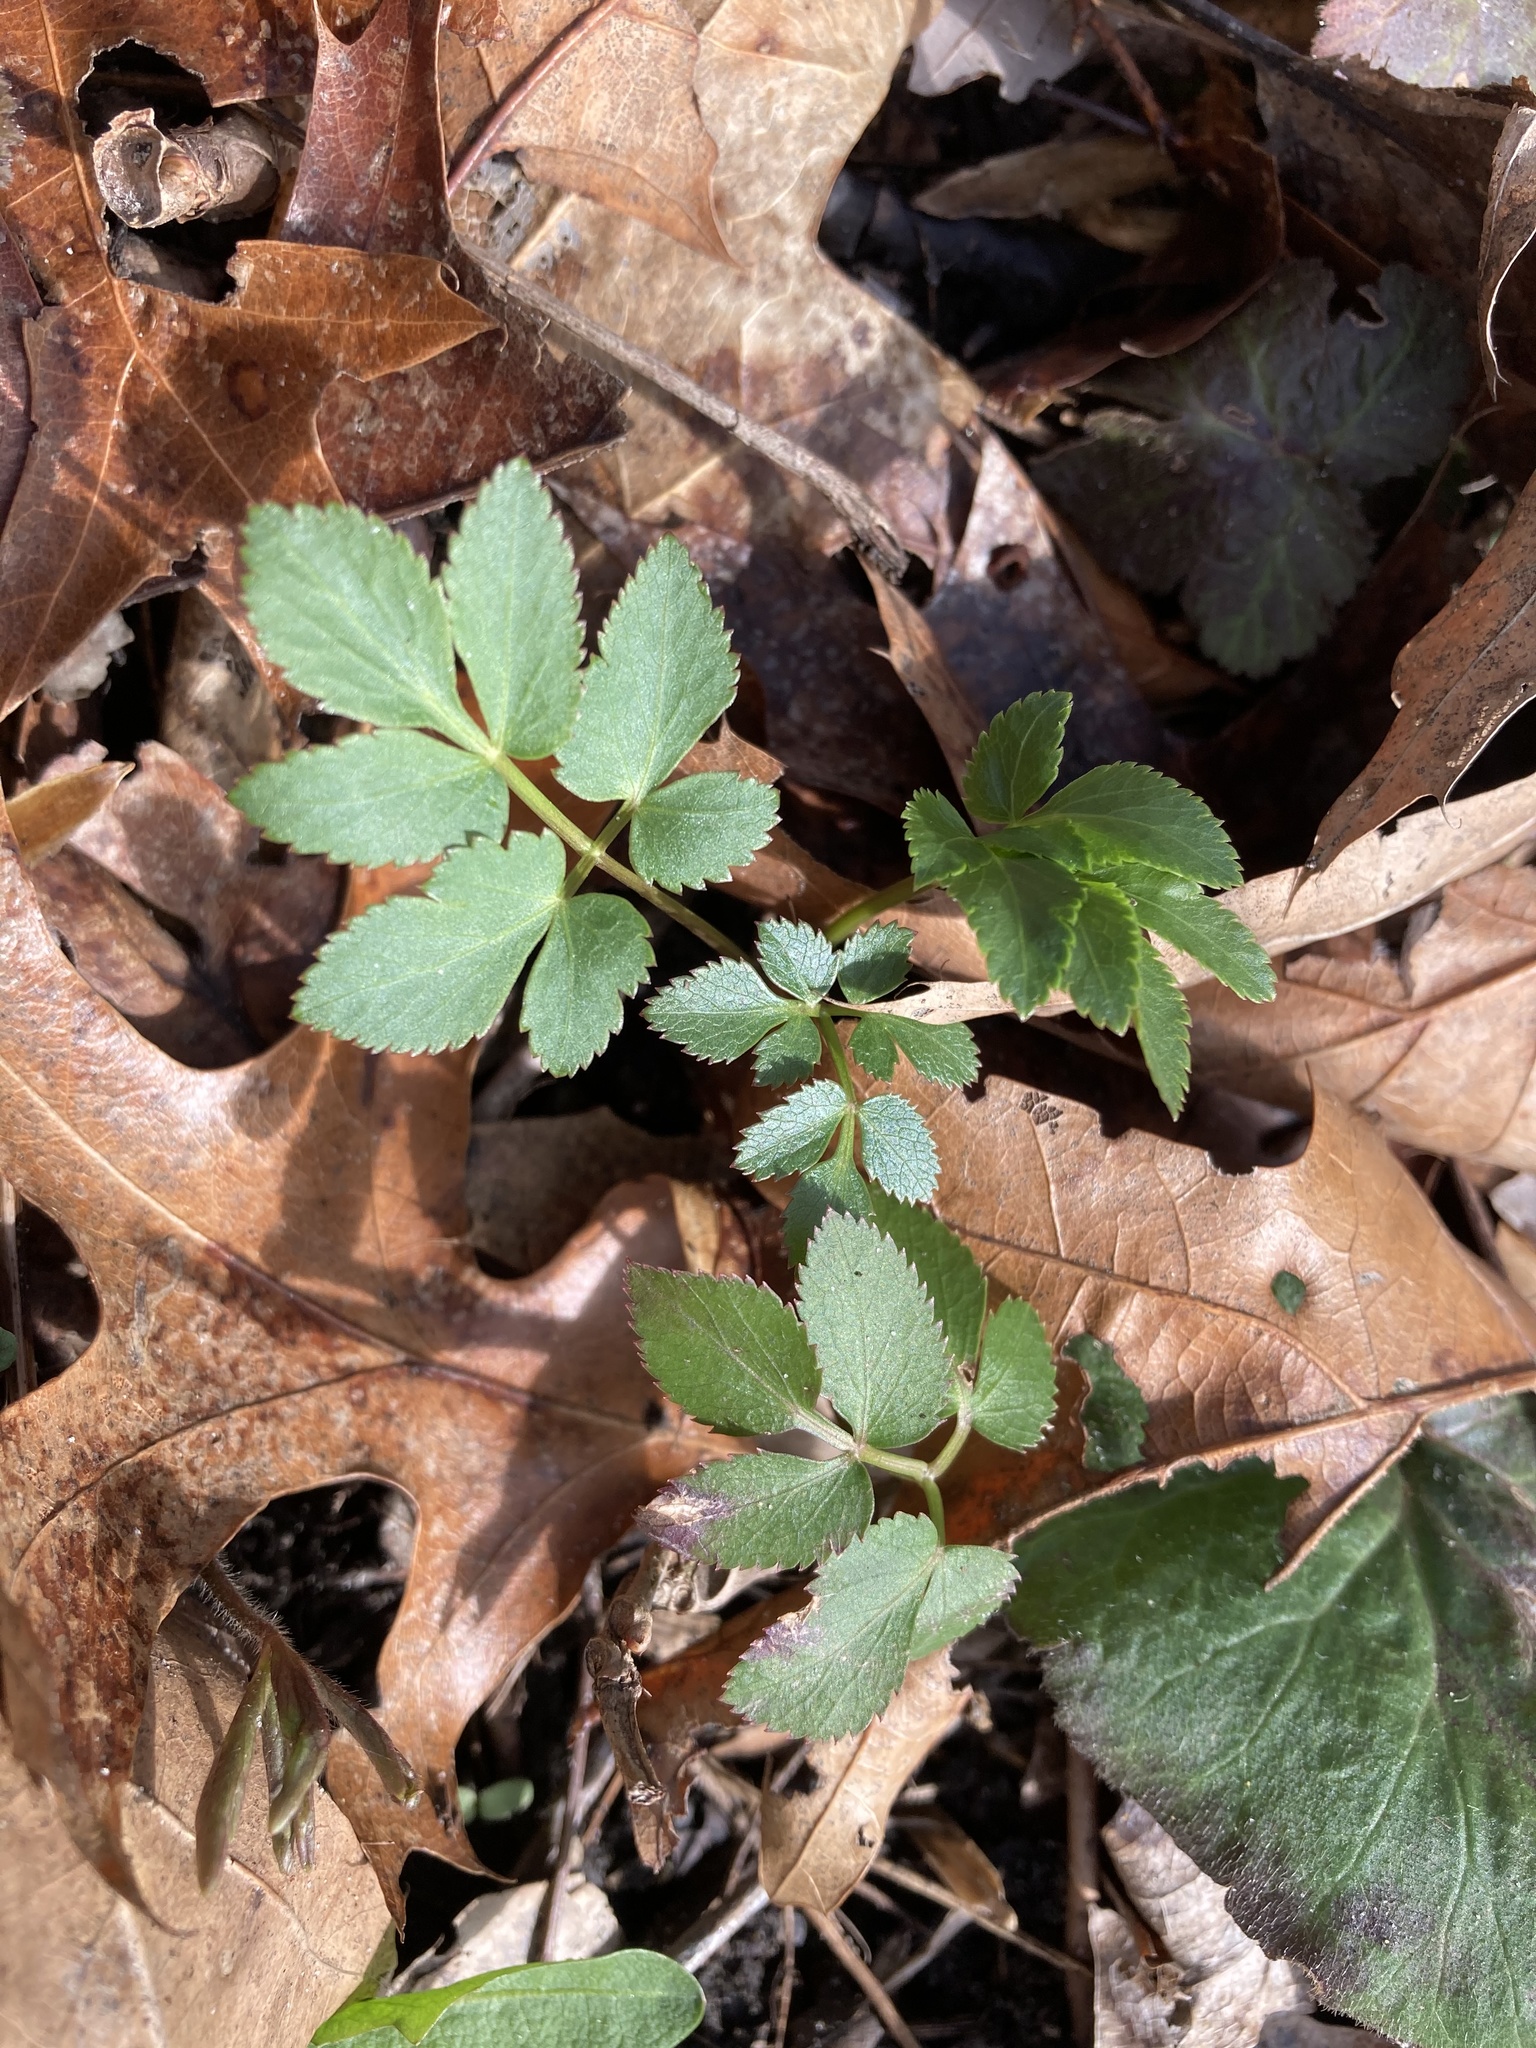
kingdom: Plantae
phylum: Tracheophyta
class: Magnoliopsida
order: Apiales
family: Apiaceae
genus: Zizia
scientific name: Zizia aurea
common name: Golden alexanders
